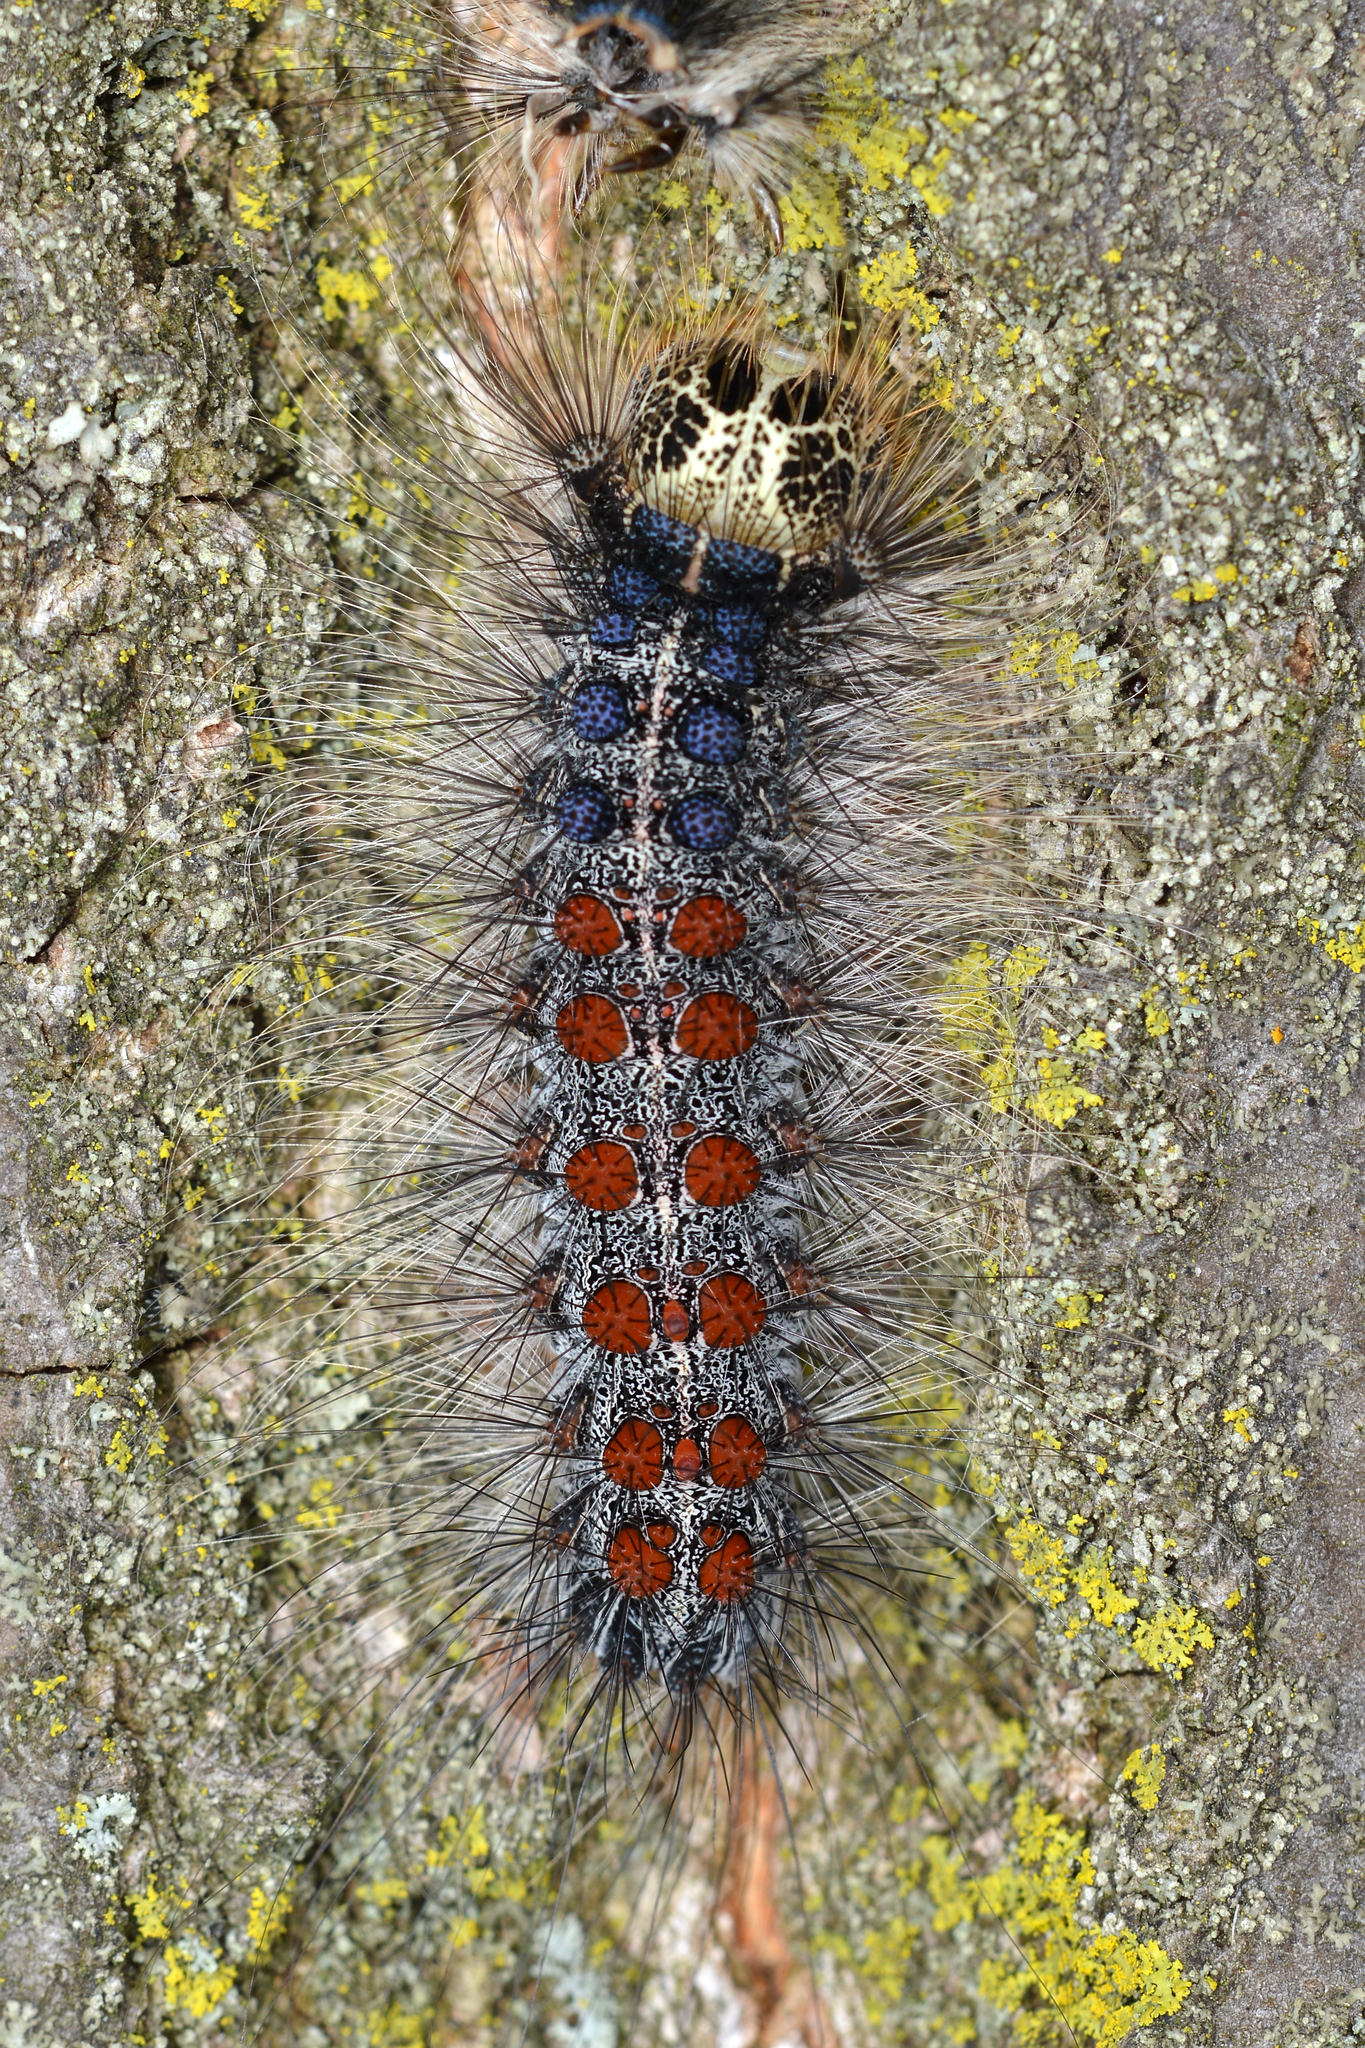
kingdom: Animalia
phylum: Arthropoda
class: Insecta
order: Lepidoptera
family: Erebidae
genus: Lymantria
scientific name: Lymantria dispar
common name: Gypsy moth
